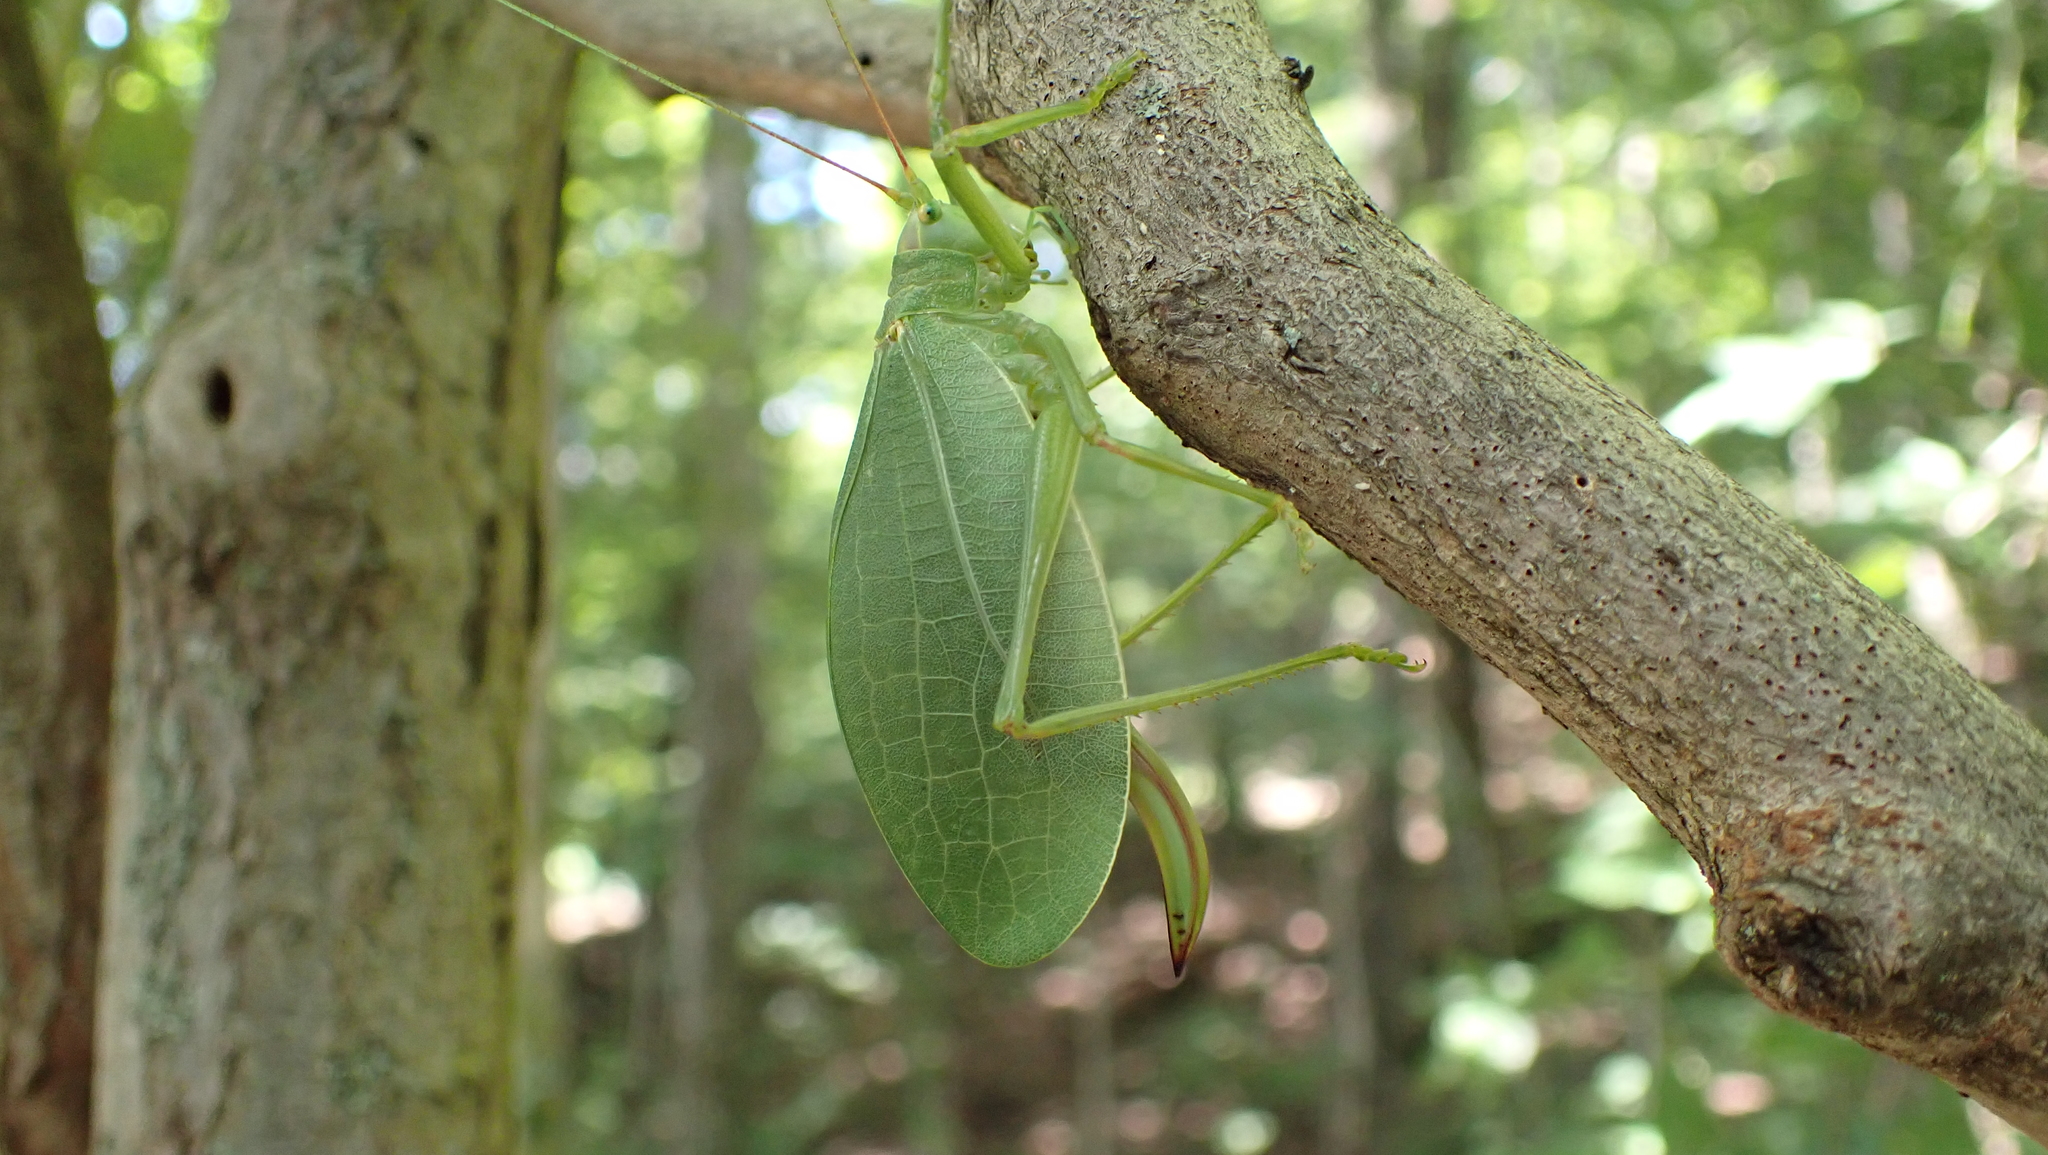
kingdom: Animalia
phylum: Arthropoda
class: Insecta
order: Orthoptera
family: Tettigoniidae
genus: Pterophylla
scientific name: Pterophylla camellifolia
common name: Common true katydid
